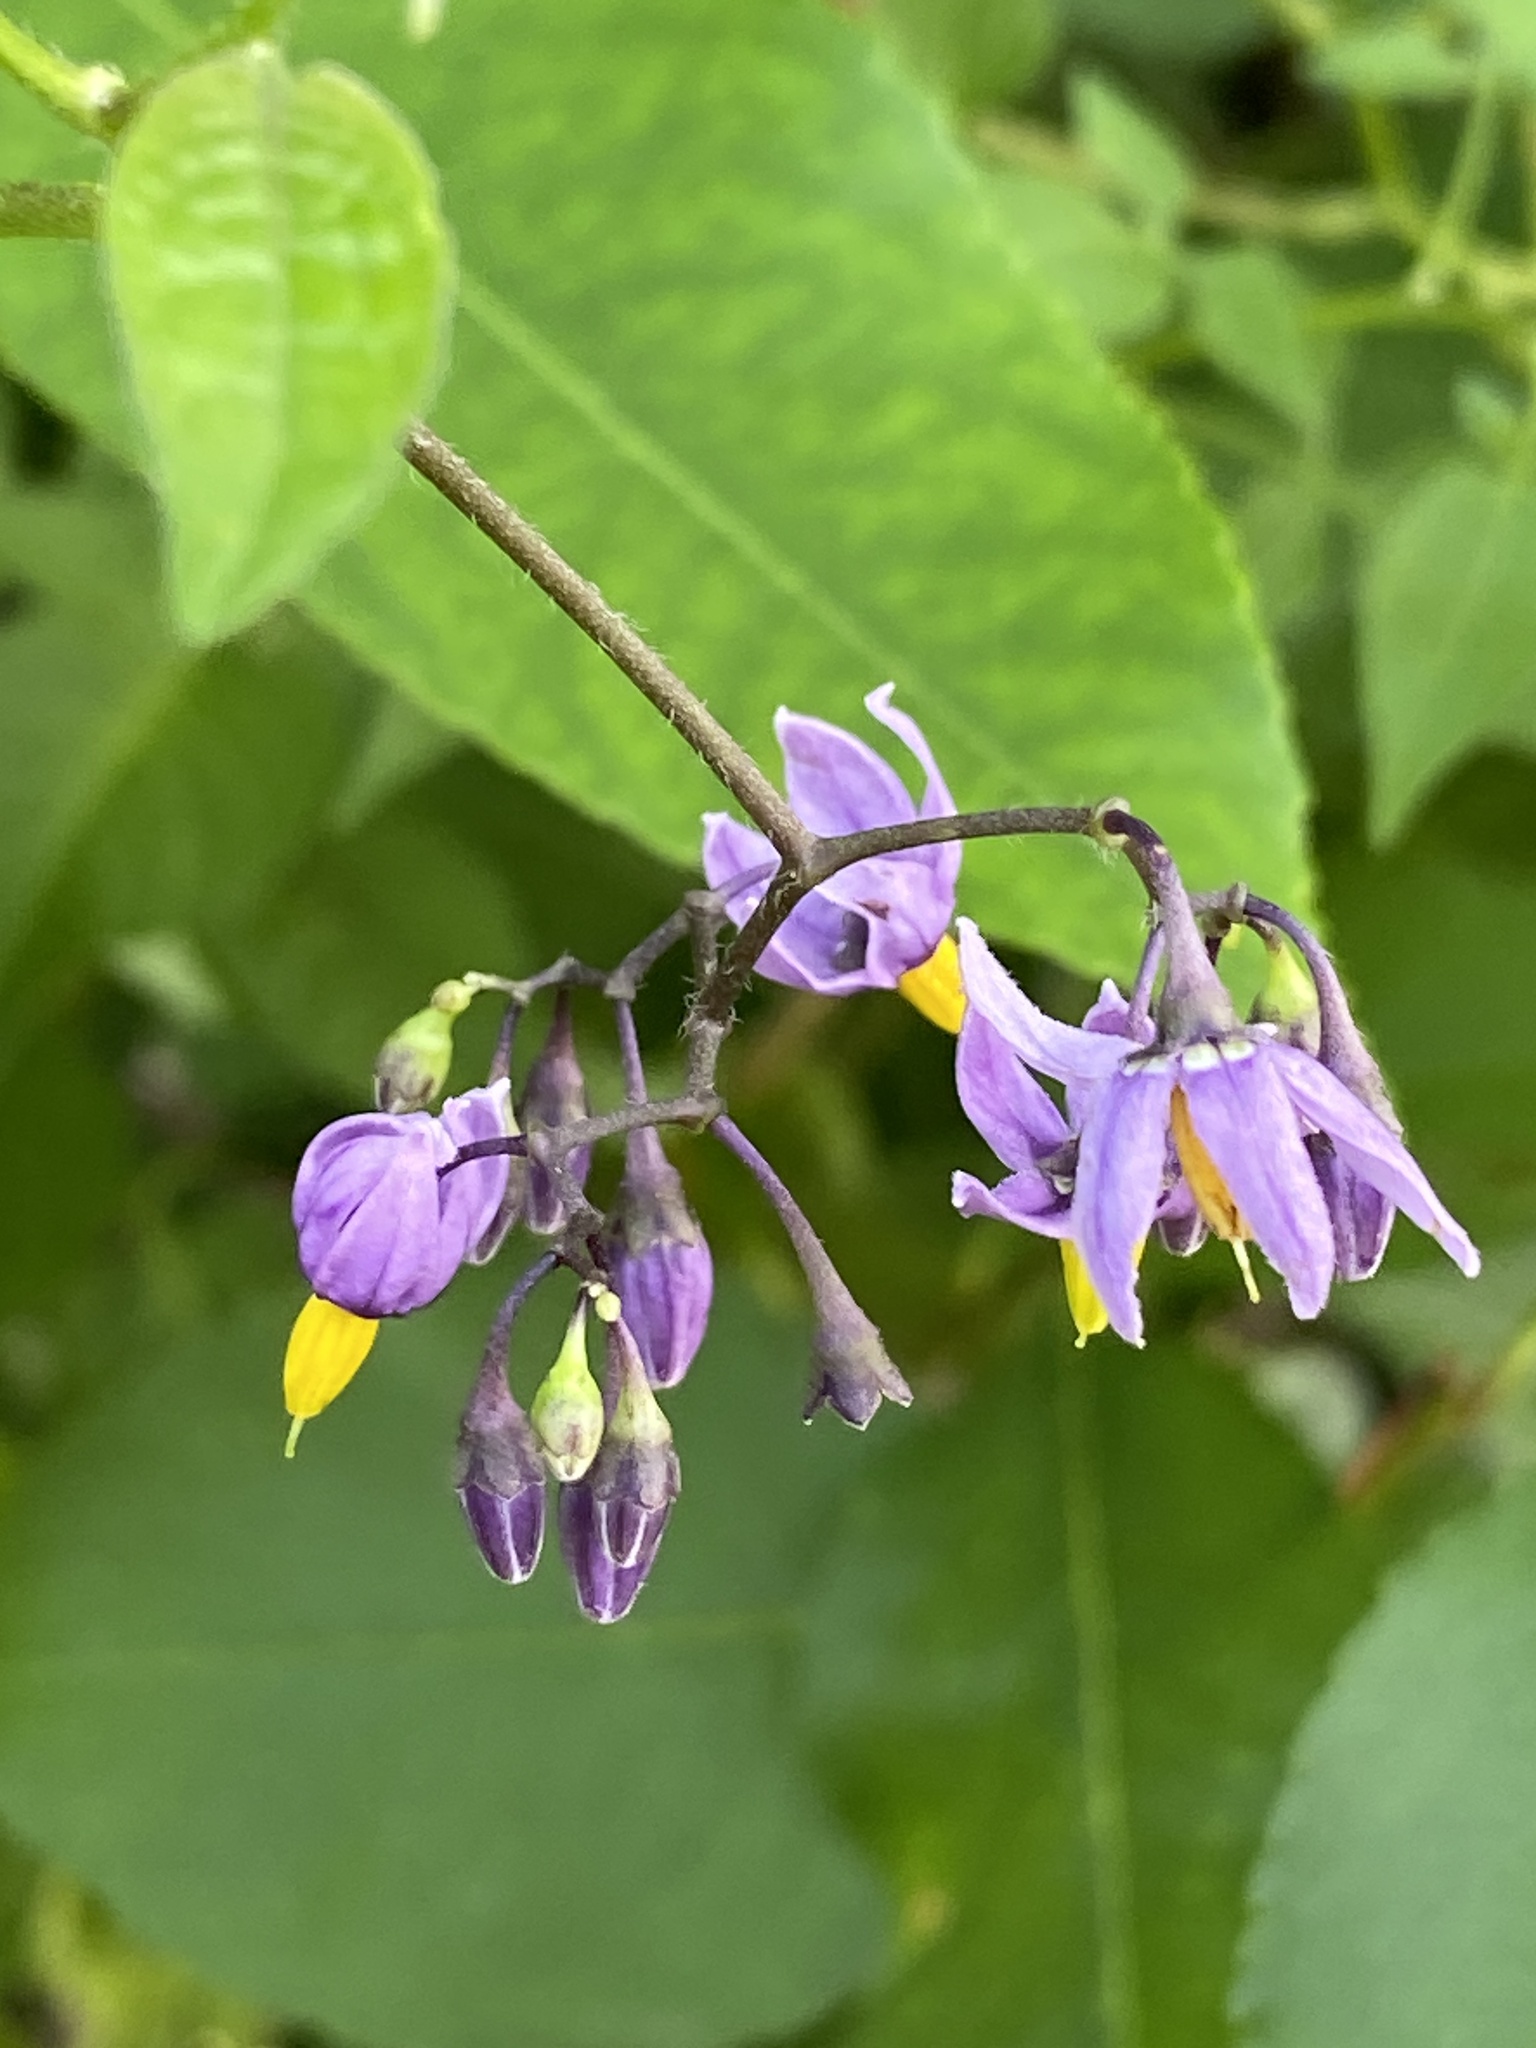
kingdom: Plantae
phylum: Tracheophyta
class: Magnoliopsida
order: Solanales
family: Solanaceae
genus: Solanum
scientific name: Solanum dulcamara
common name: Climbing nightshade
